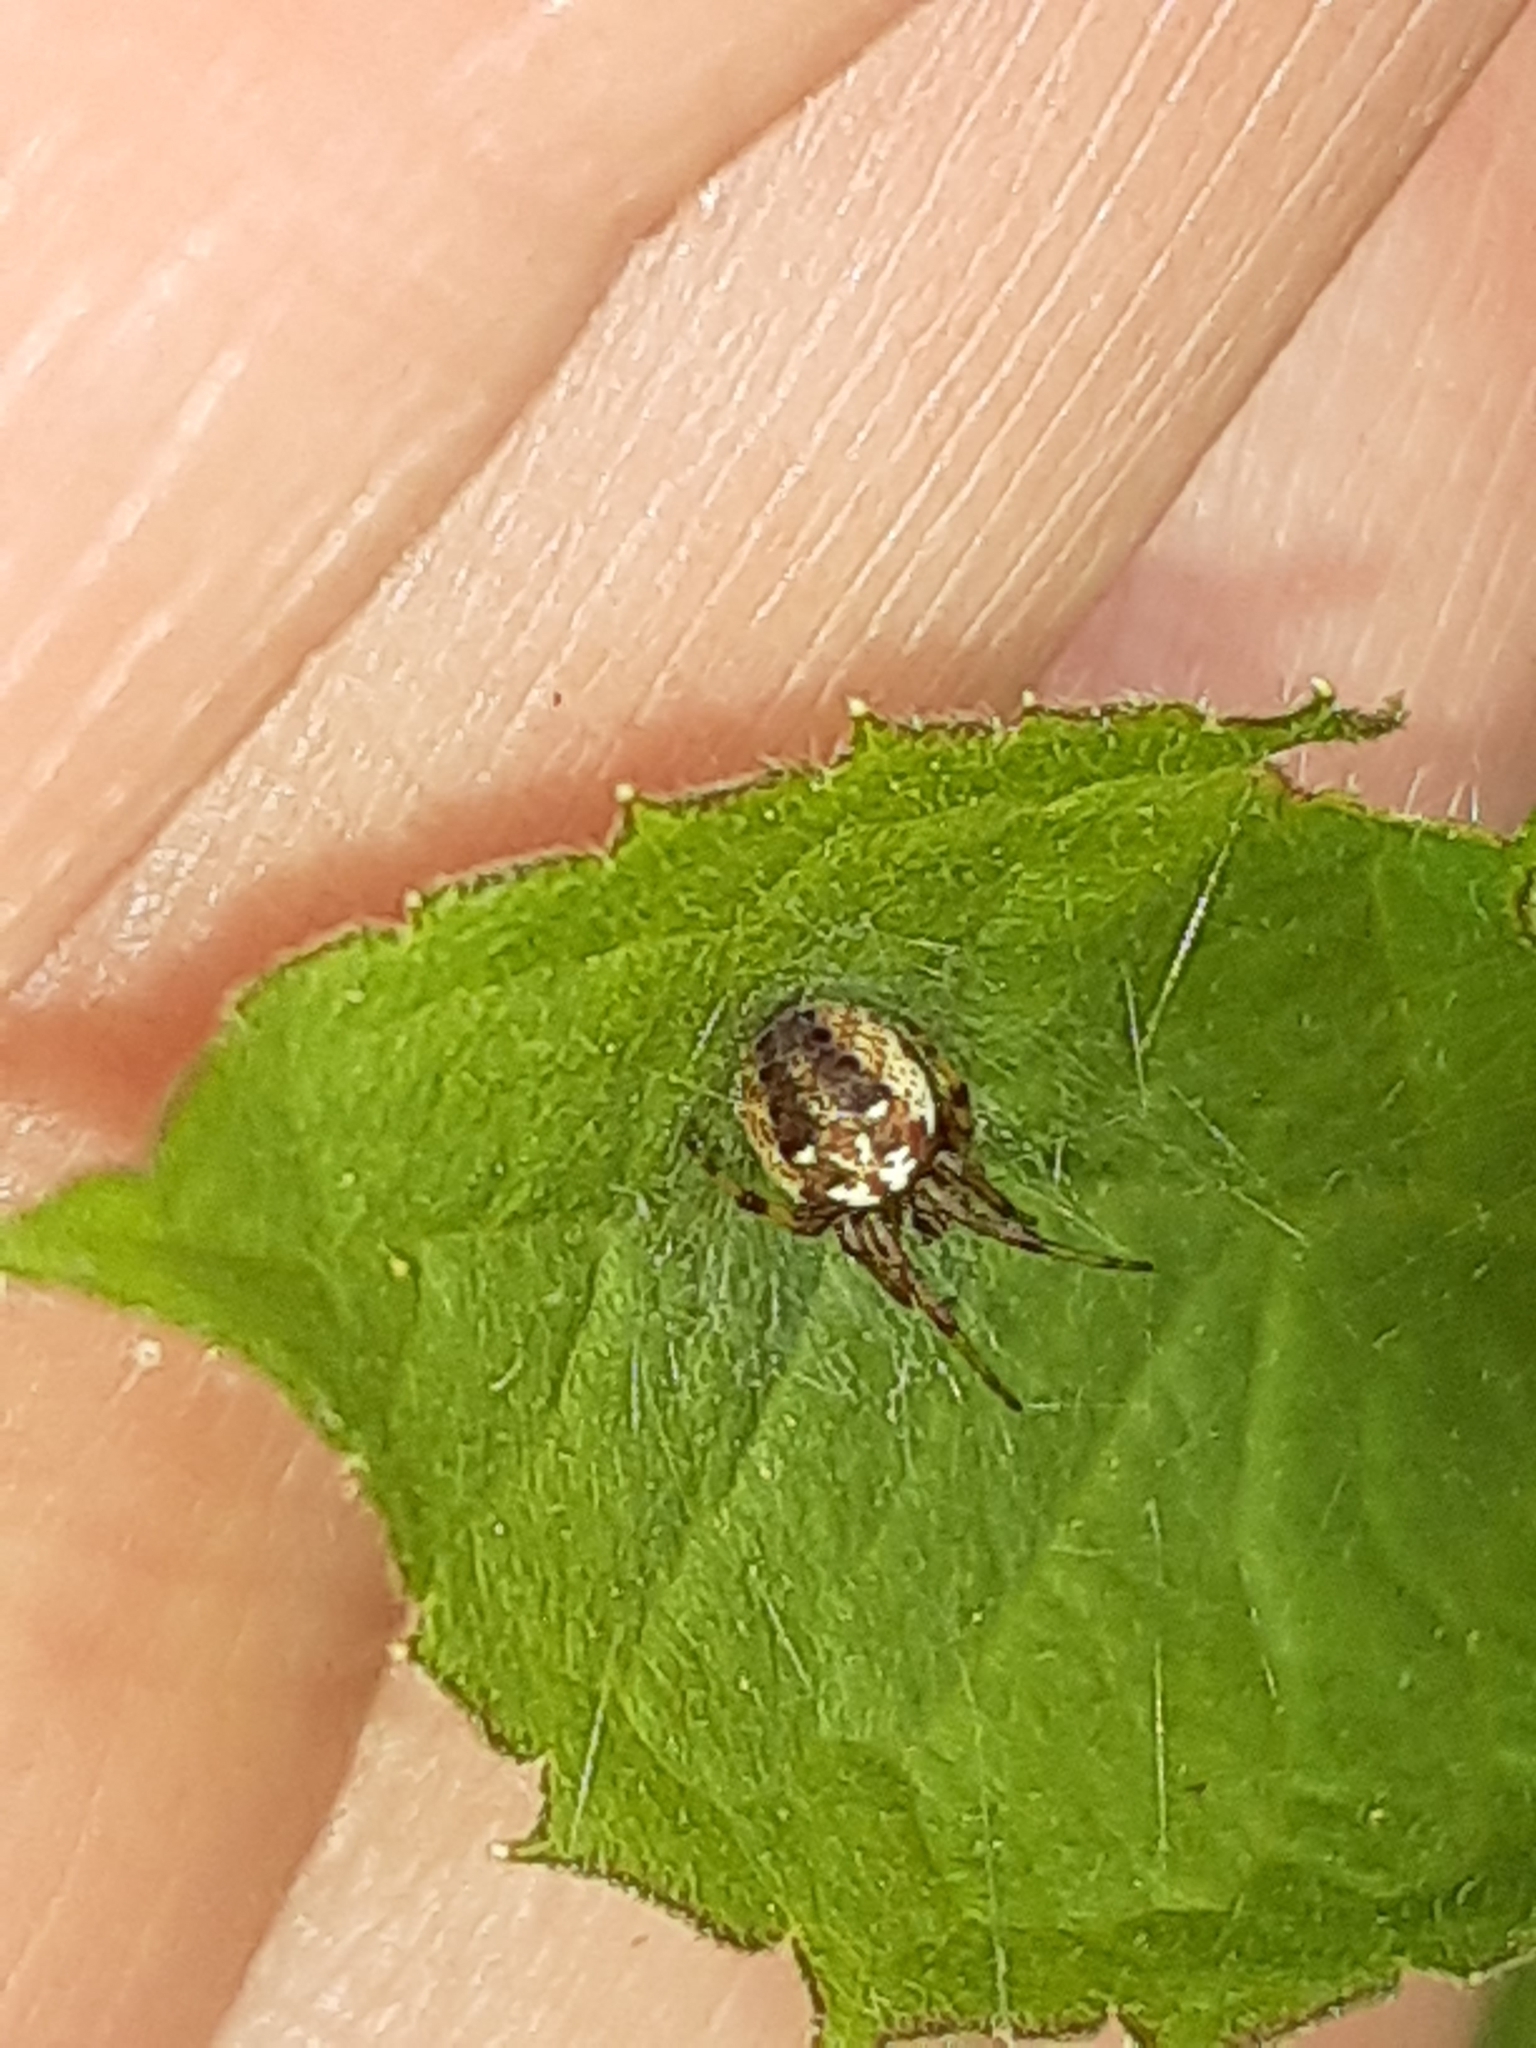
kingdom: Animalia
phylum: Arthropoda
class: Arachnida
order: Araneae
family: Araneidae
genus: Neoscona
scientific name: Neoscona arabesca
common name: Orb weavers
